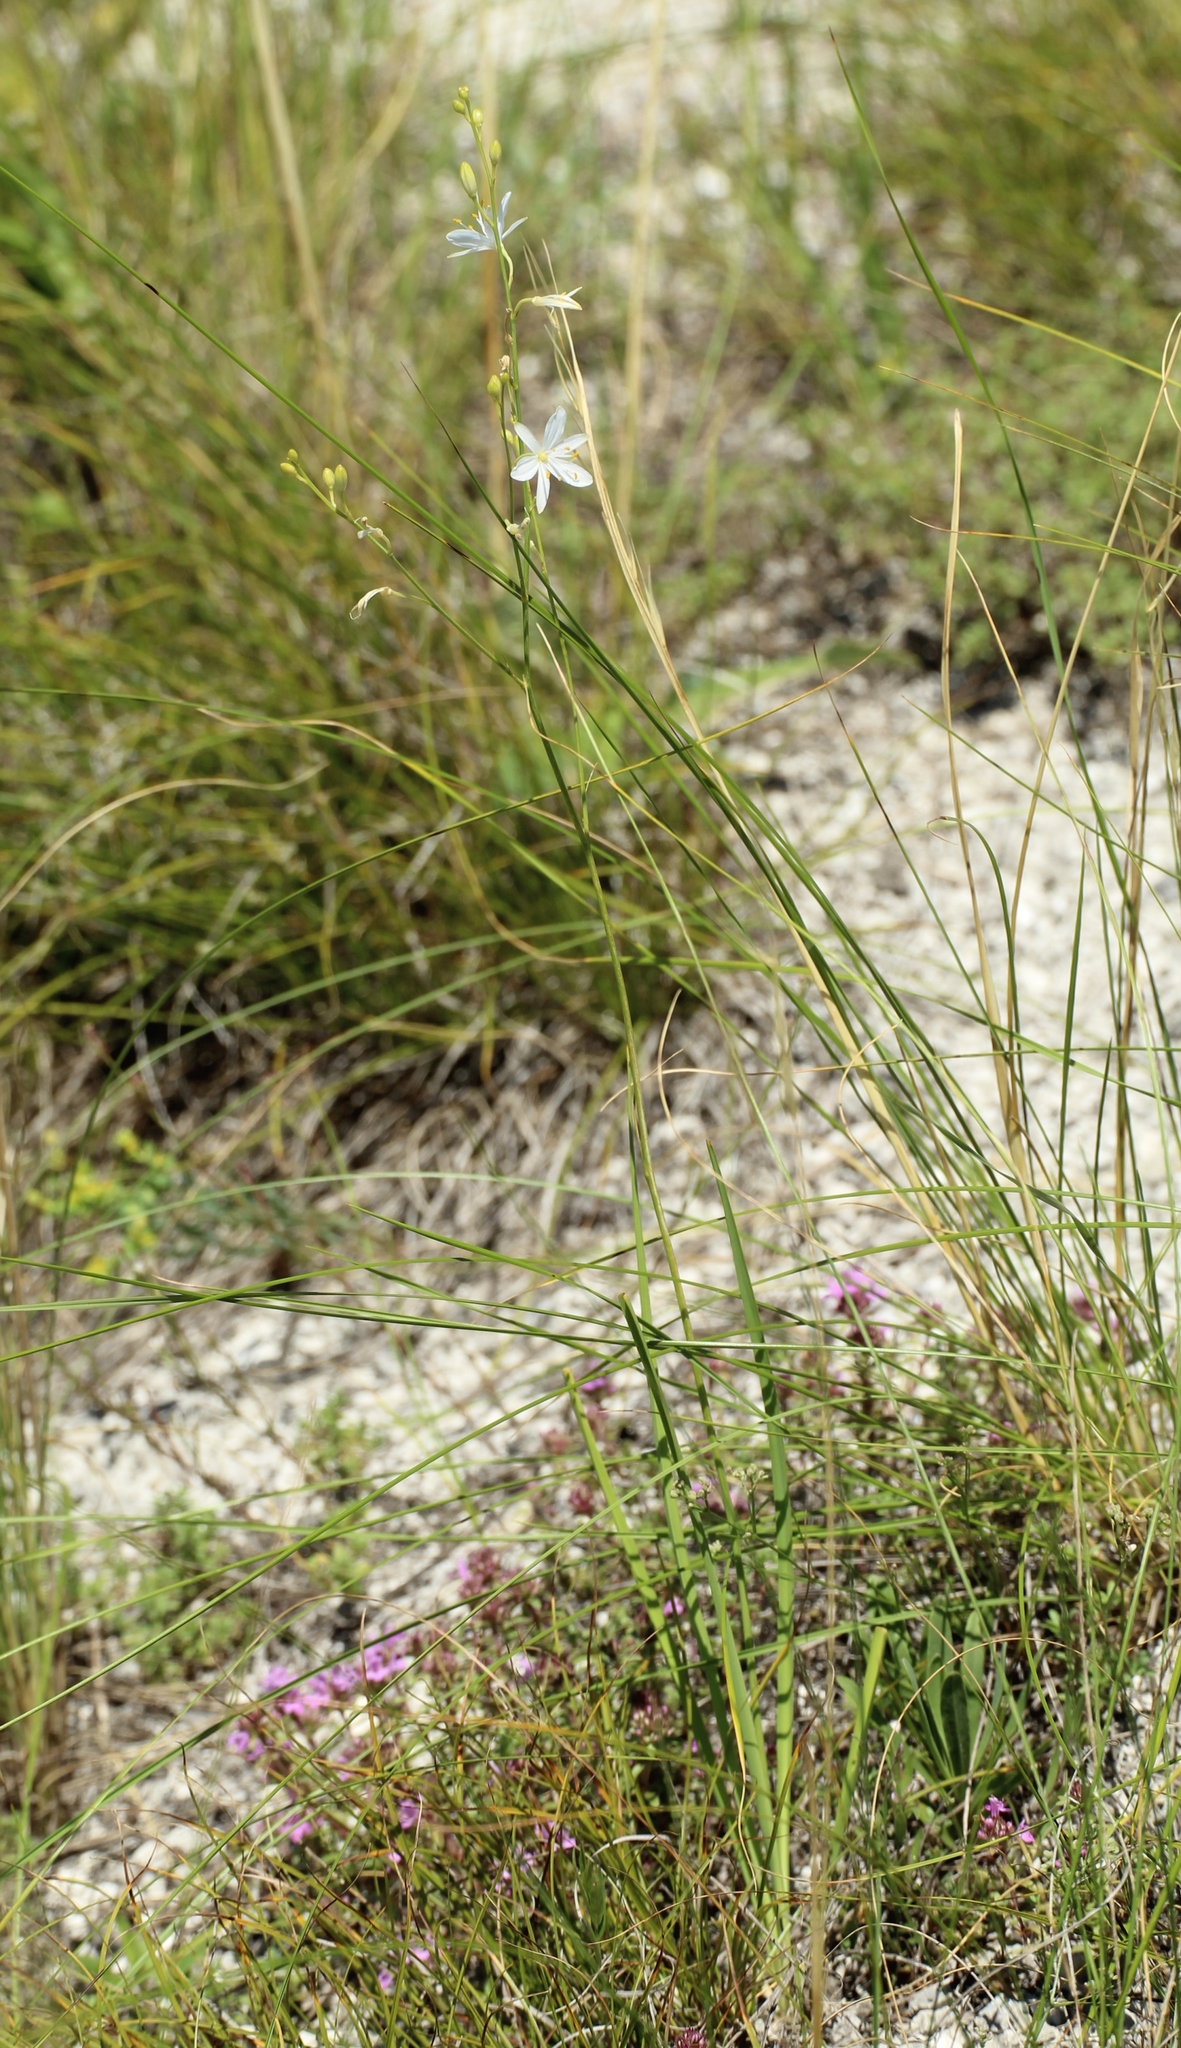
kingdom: Plantae
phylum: Tracheophyta
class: Liliopsida
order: Asparagales
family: Asparagaceae
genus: Anthericum
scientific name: Anthericum ramosum
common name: Branched st. bernard's-lily
